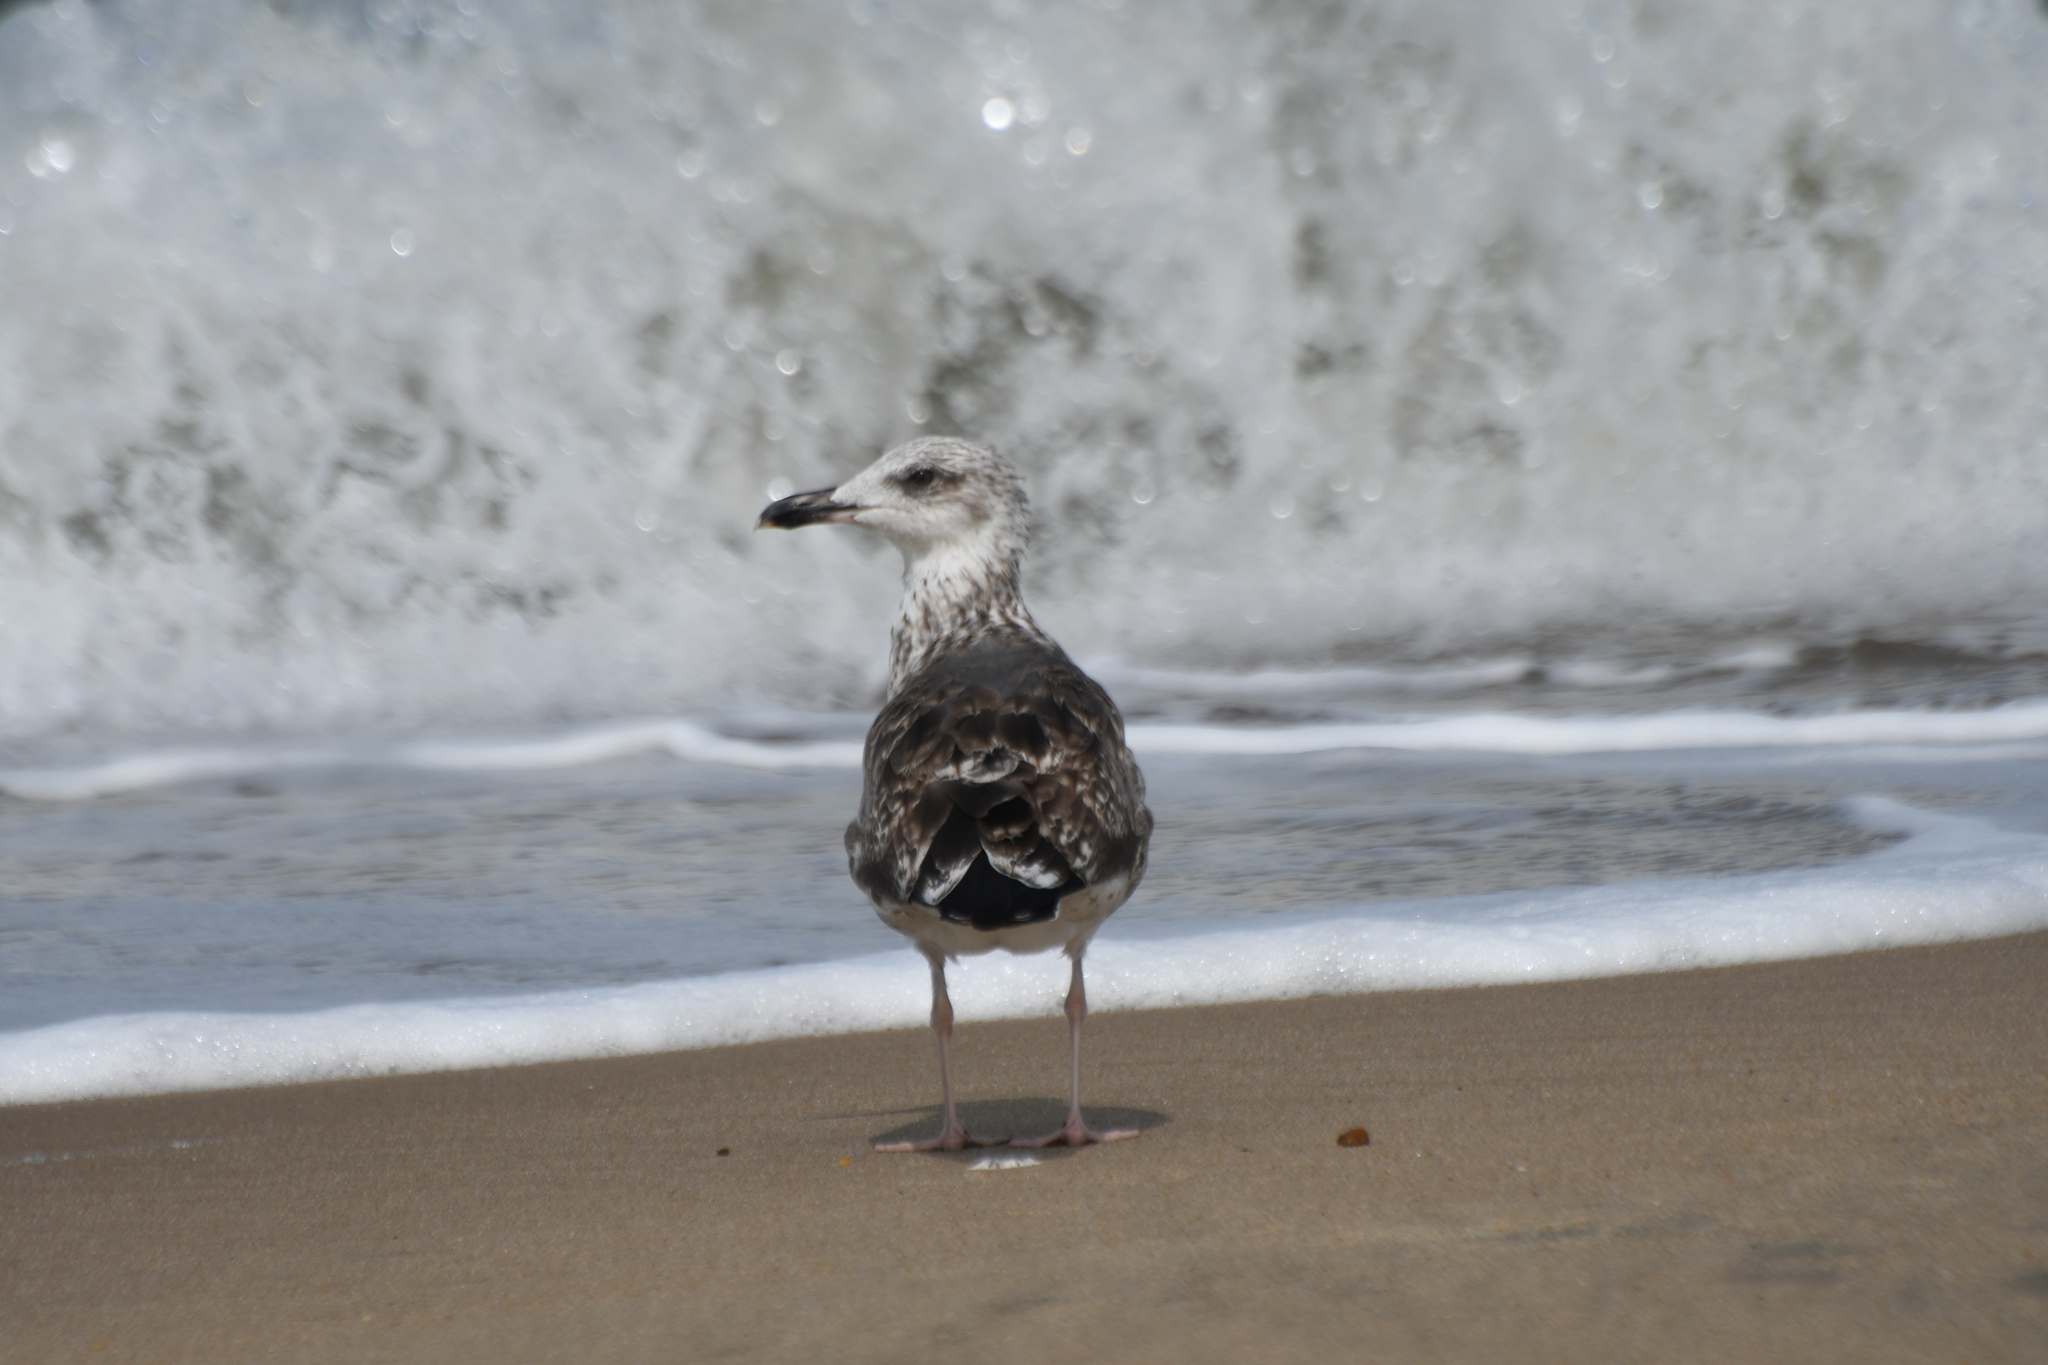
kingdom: Animalia
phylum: Chordata
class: Aves
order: Charadriiformes
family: Laridae
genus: Larus
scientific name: Larus fuscus
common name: Lesser black-backed gull
